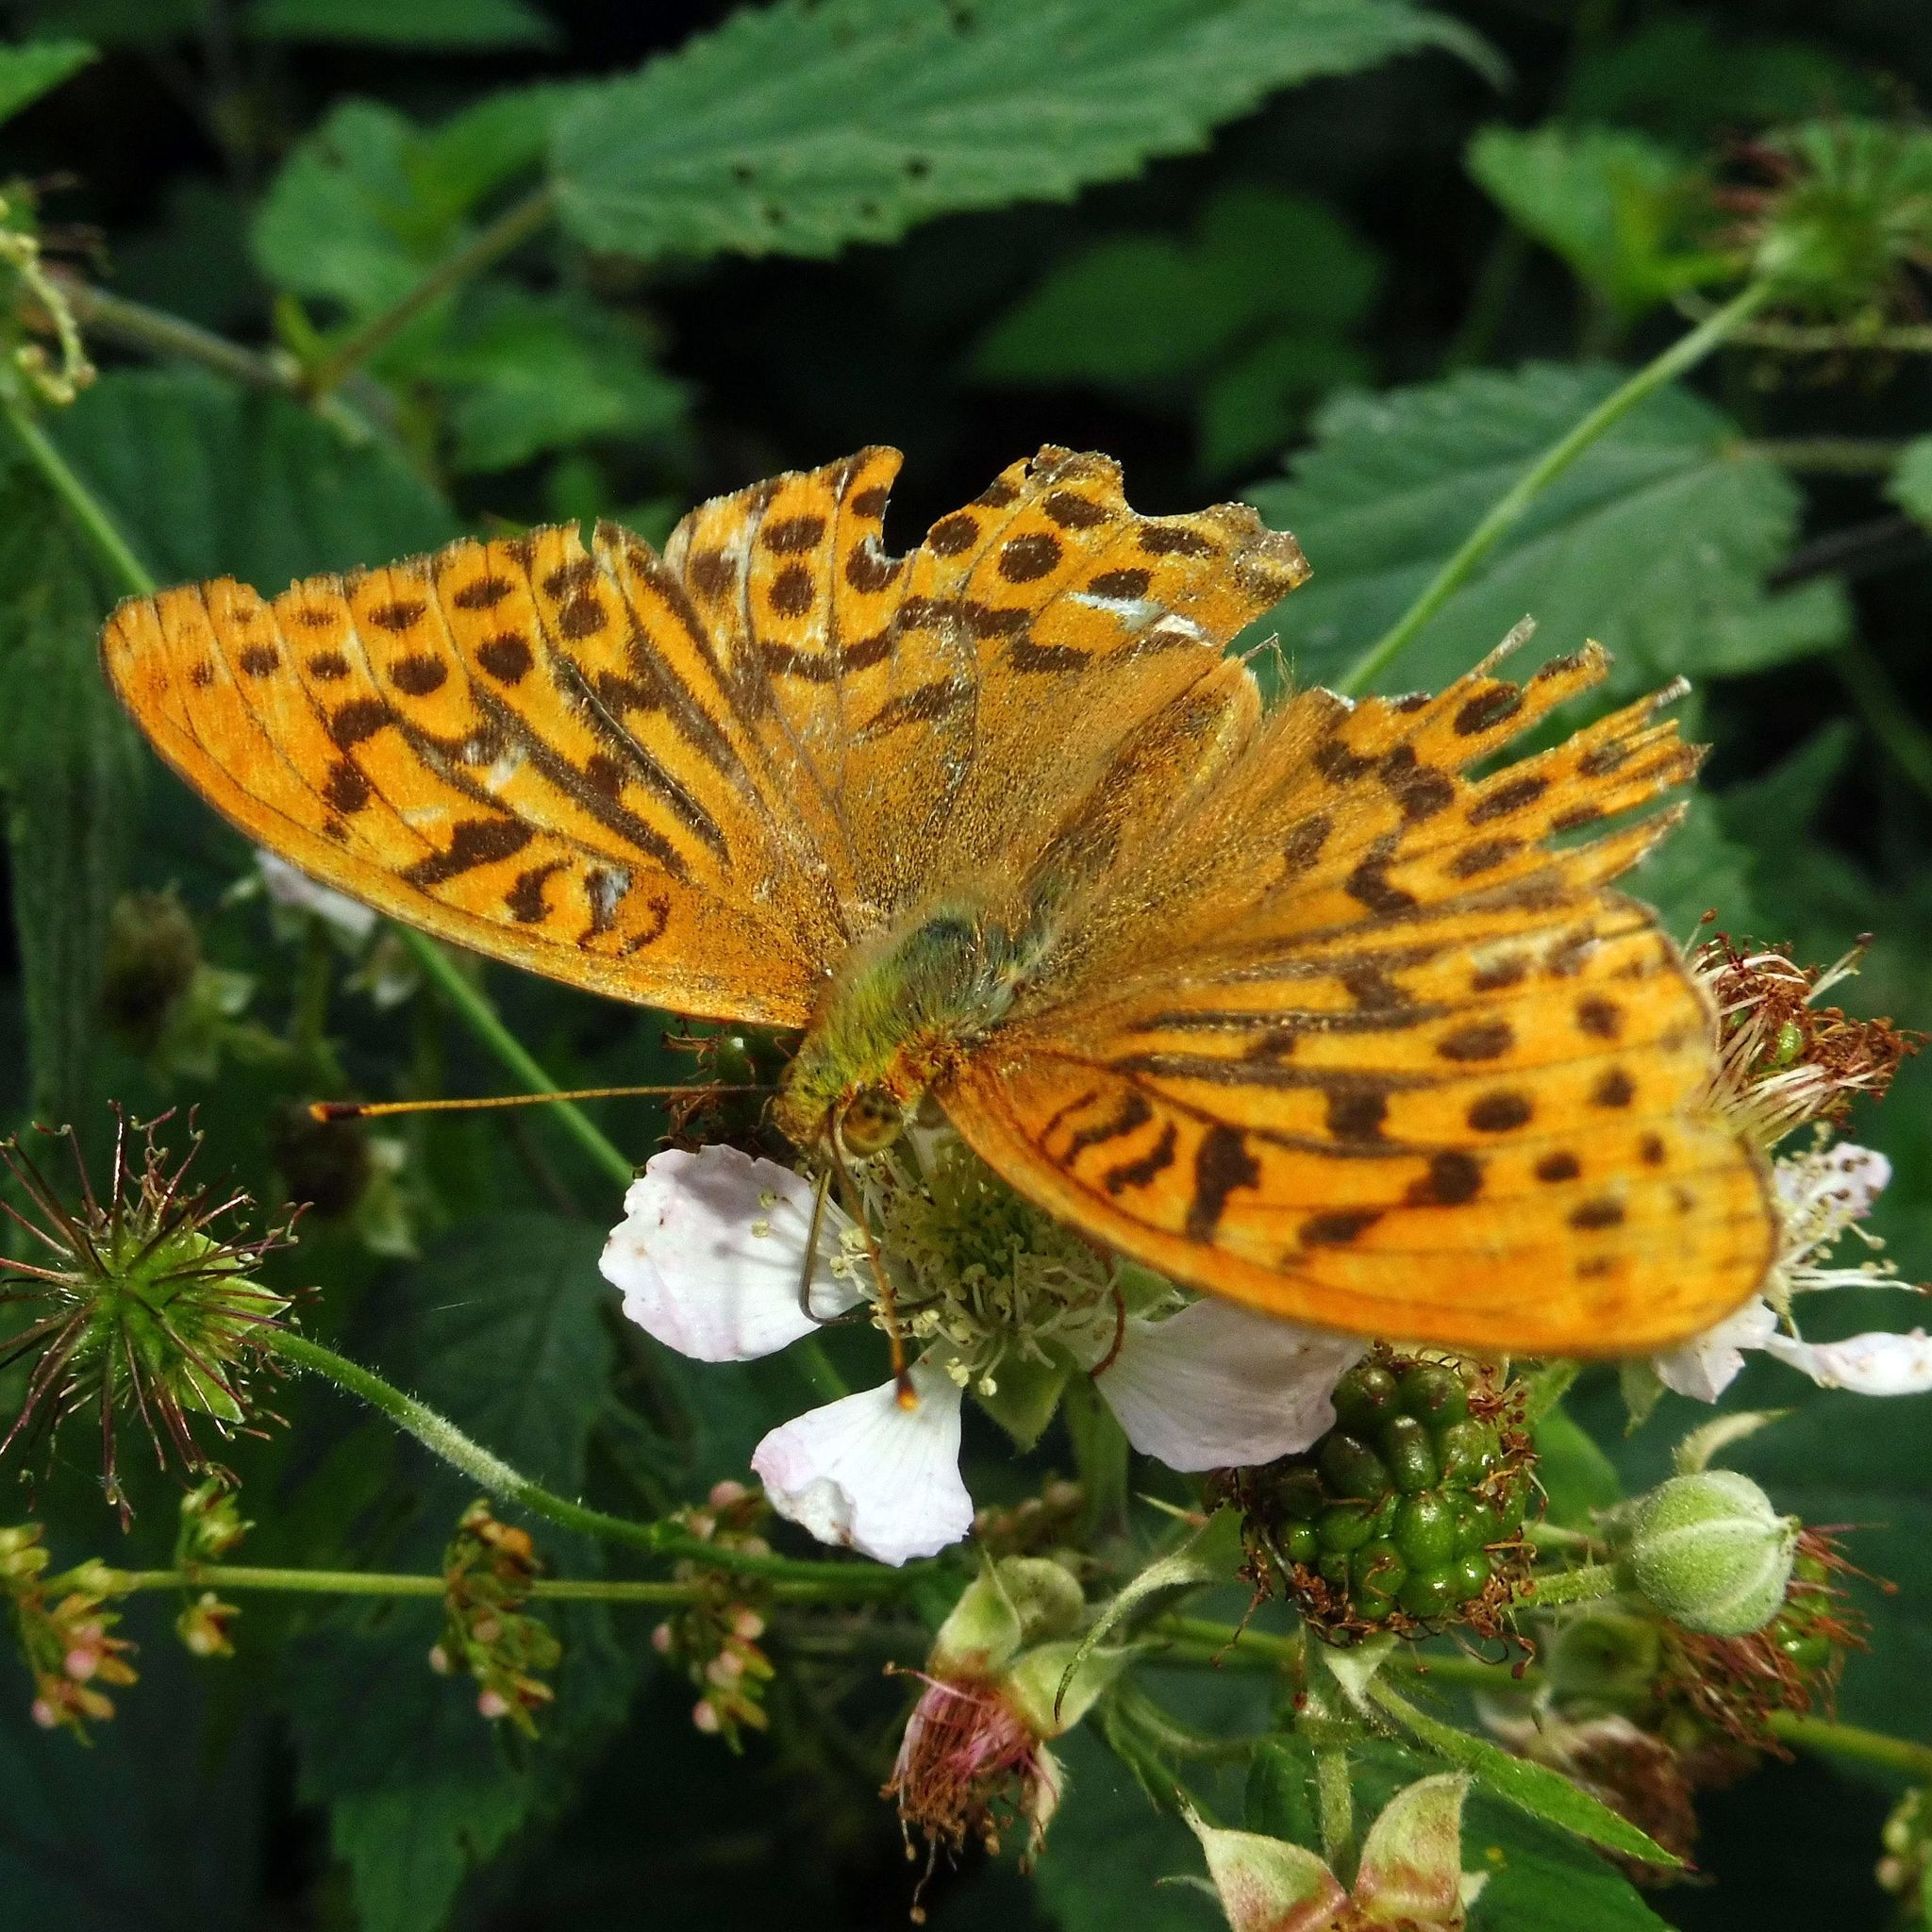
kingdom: Animalia
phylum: Arthropoda
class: Insecta
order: Lepidoptera
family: Nymphalidae
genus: Argynnis
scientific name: Argynnis paphia
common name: Silver-washed fritillary
